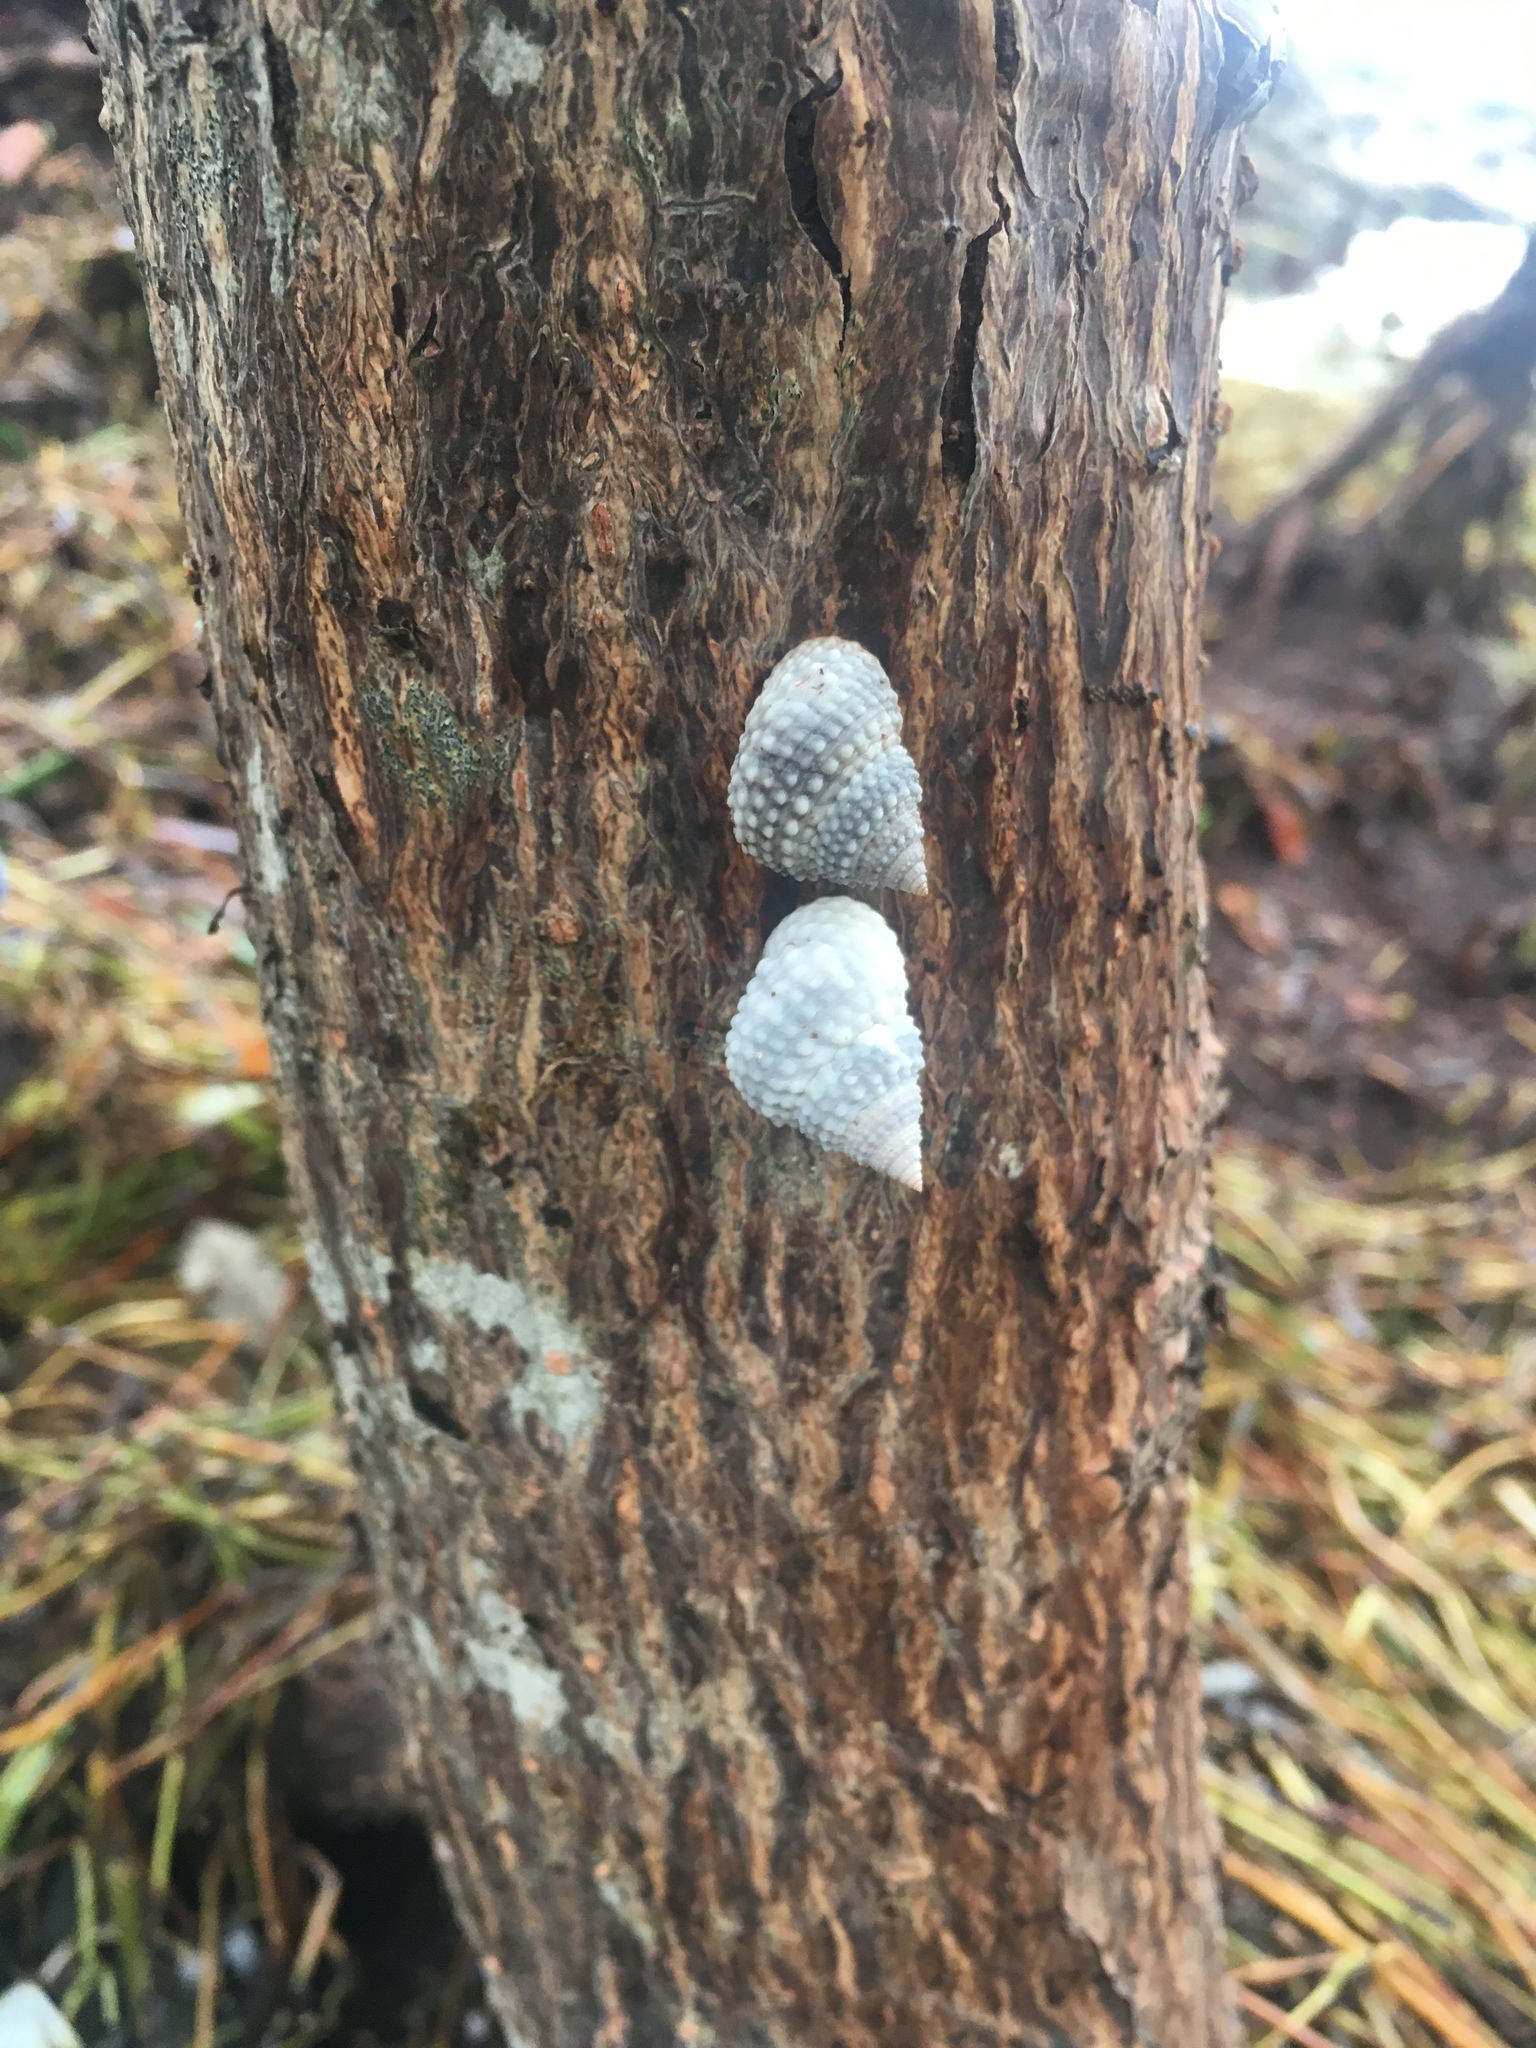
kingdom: Animalia
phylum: Mollusca
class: Gastropoda
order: Littorinimorpha
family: Littorinidae
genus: Cenchritis
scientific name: Cenchritis muricatus
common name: Beaded periwinkle
